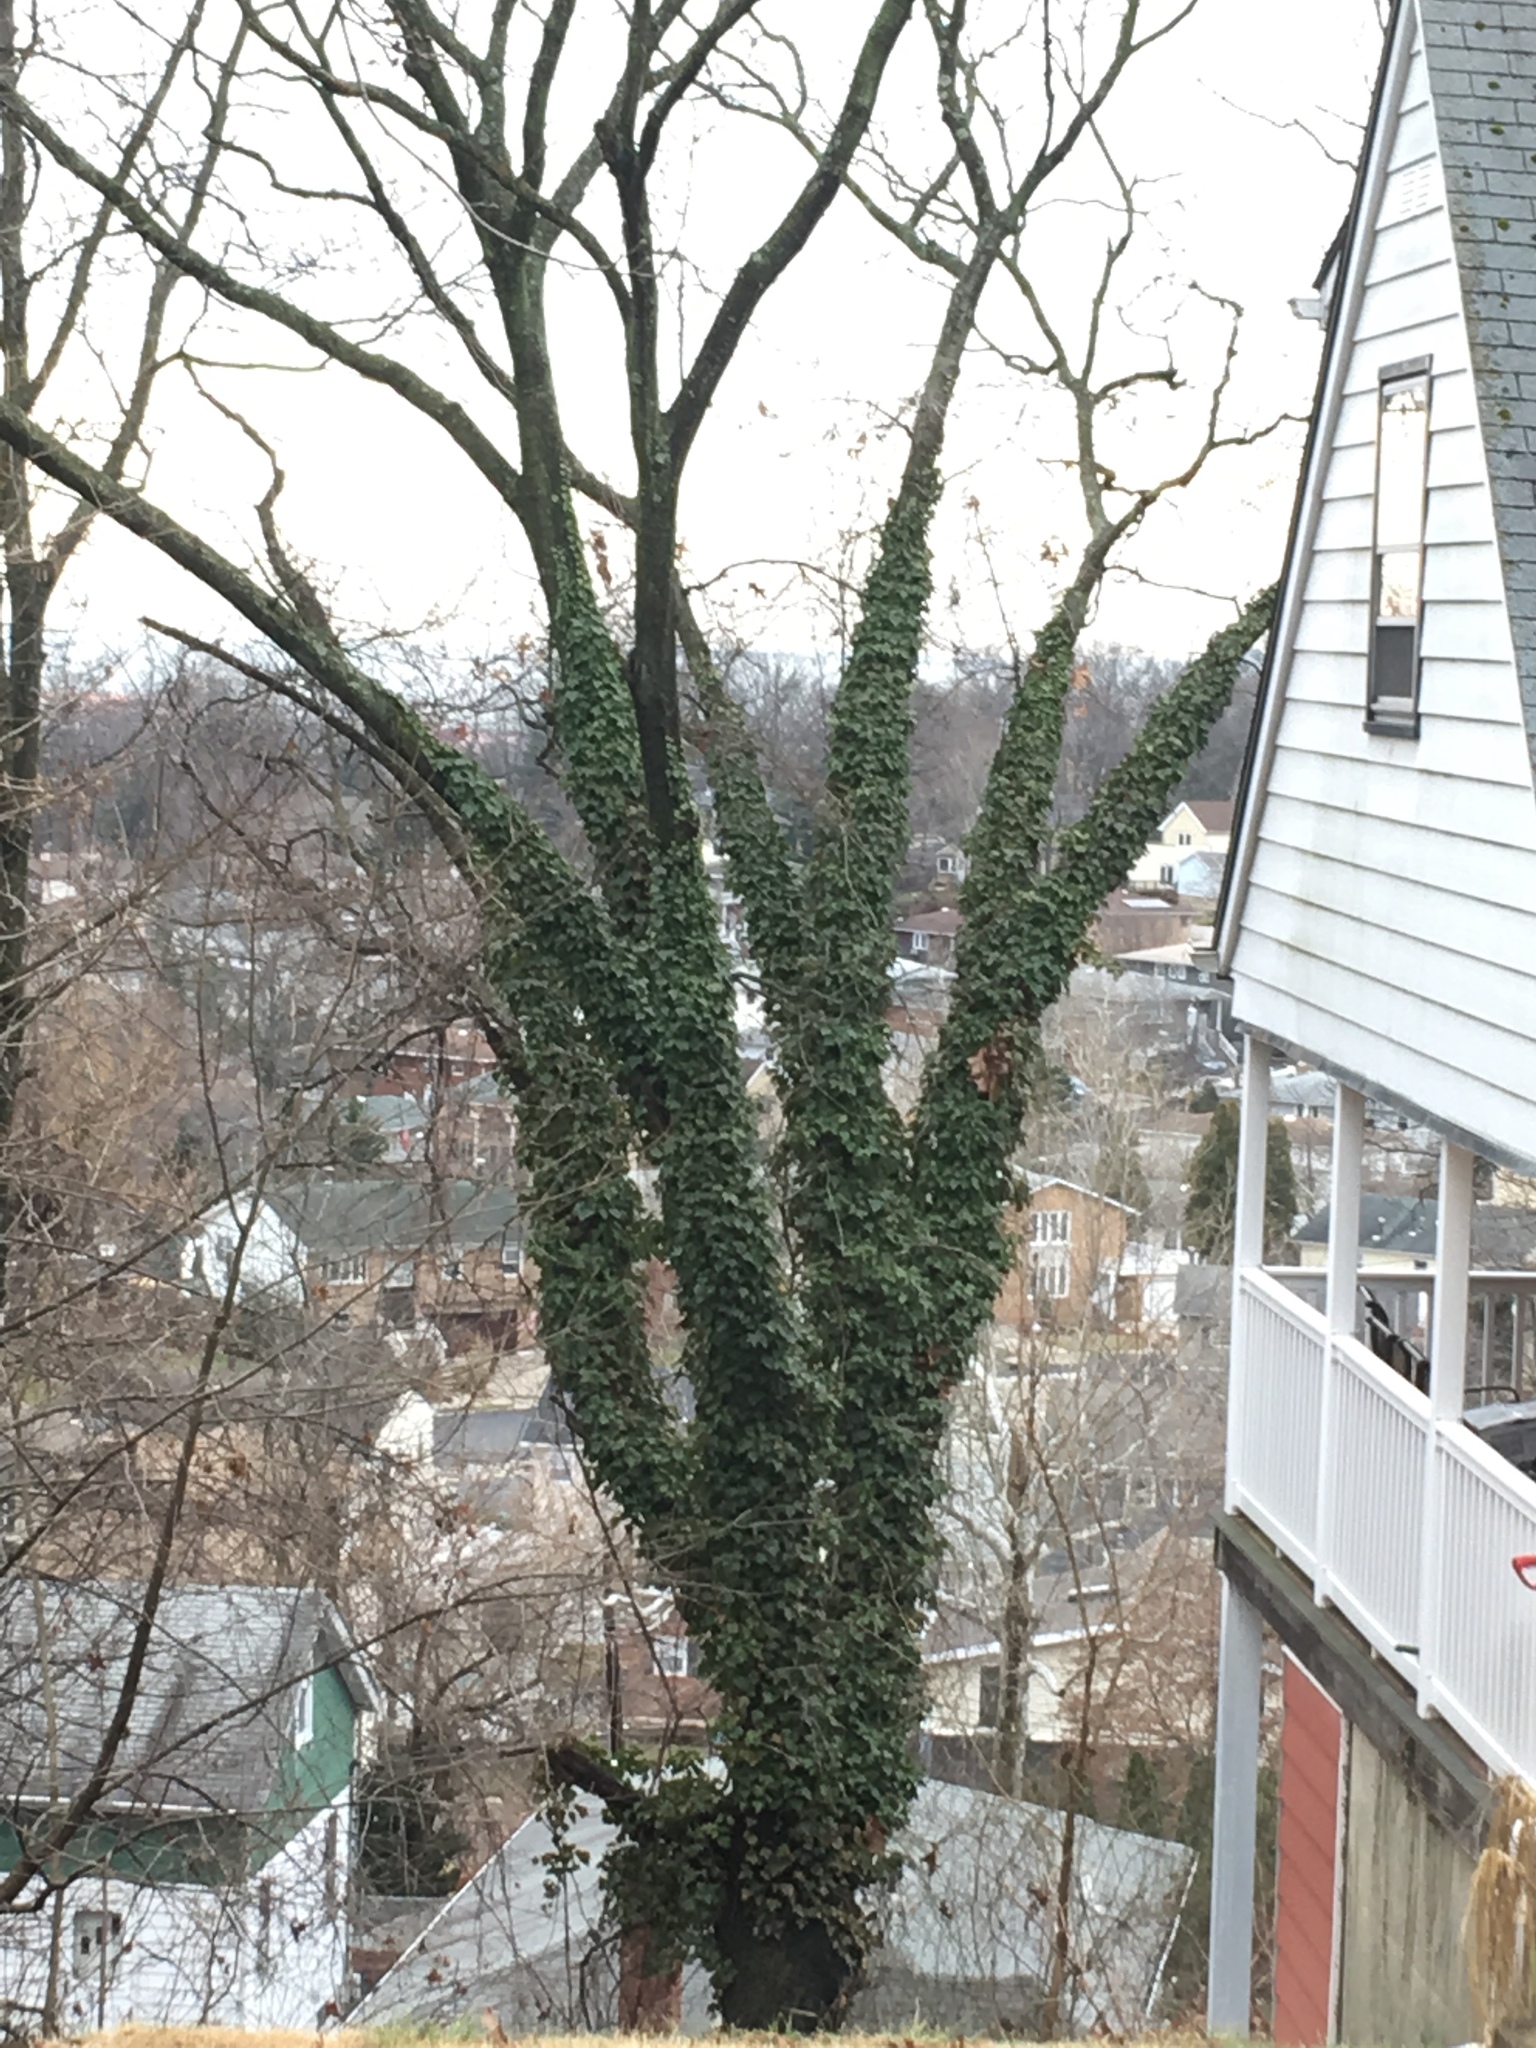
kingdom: Plantae
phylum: Tracheophyta
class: Magnoliopsida
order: Apiales
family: Araliaceae
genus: Hedera
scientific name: Hedera helix
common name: Ivy
